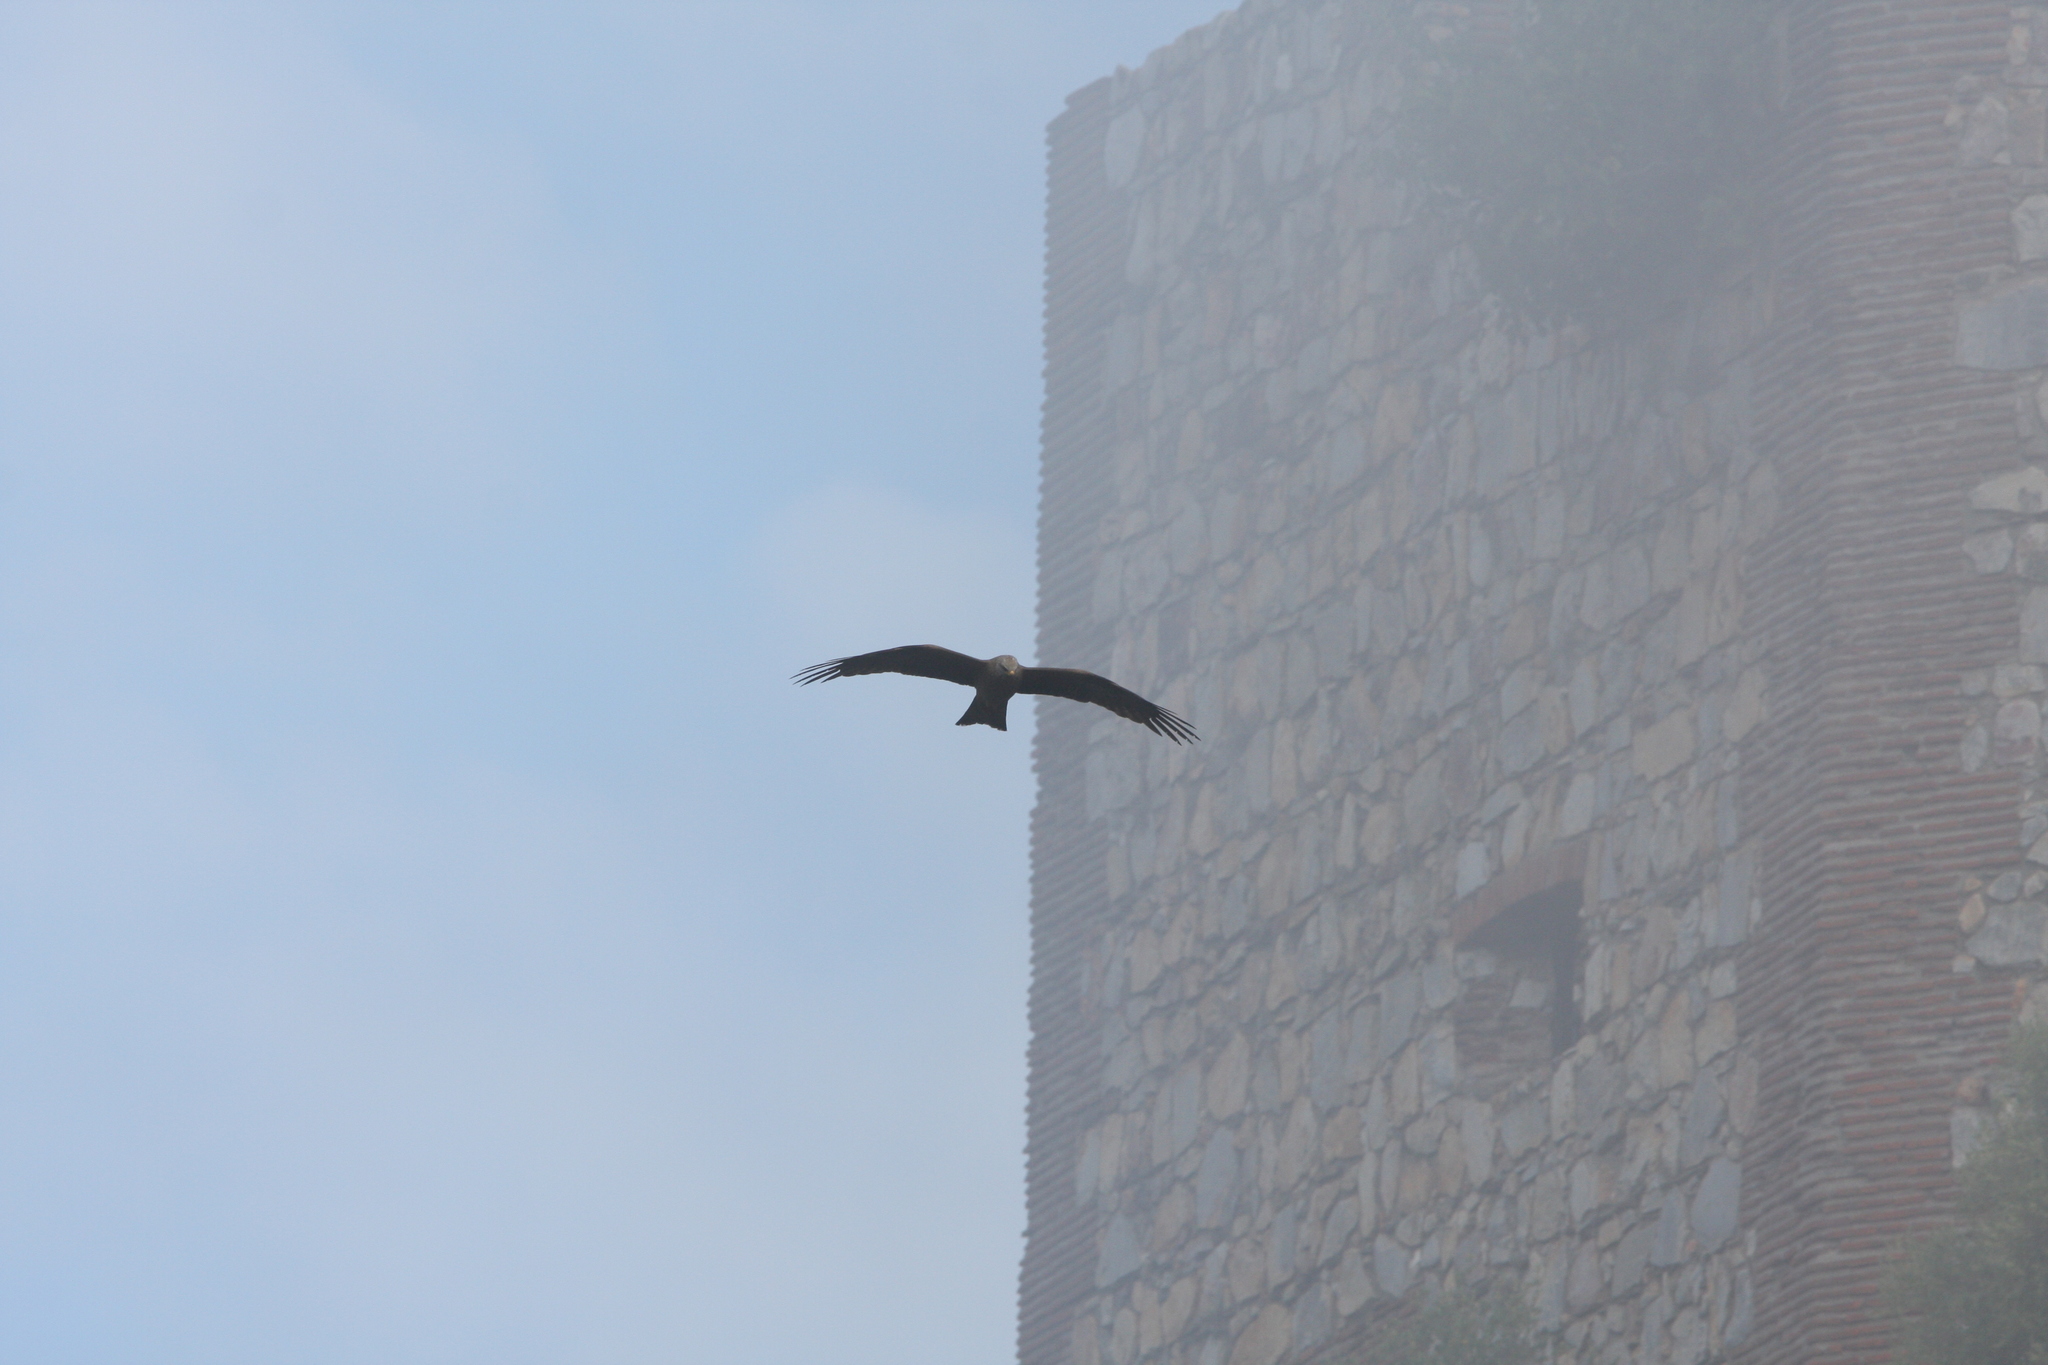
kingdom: Animalia
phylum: Chordata
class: Aves
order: Accipitriformes
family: Accipitridae
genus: Milvus
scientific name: Milvus migrans
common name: Black kite
